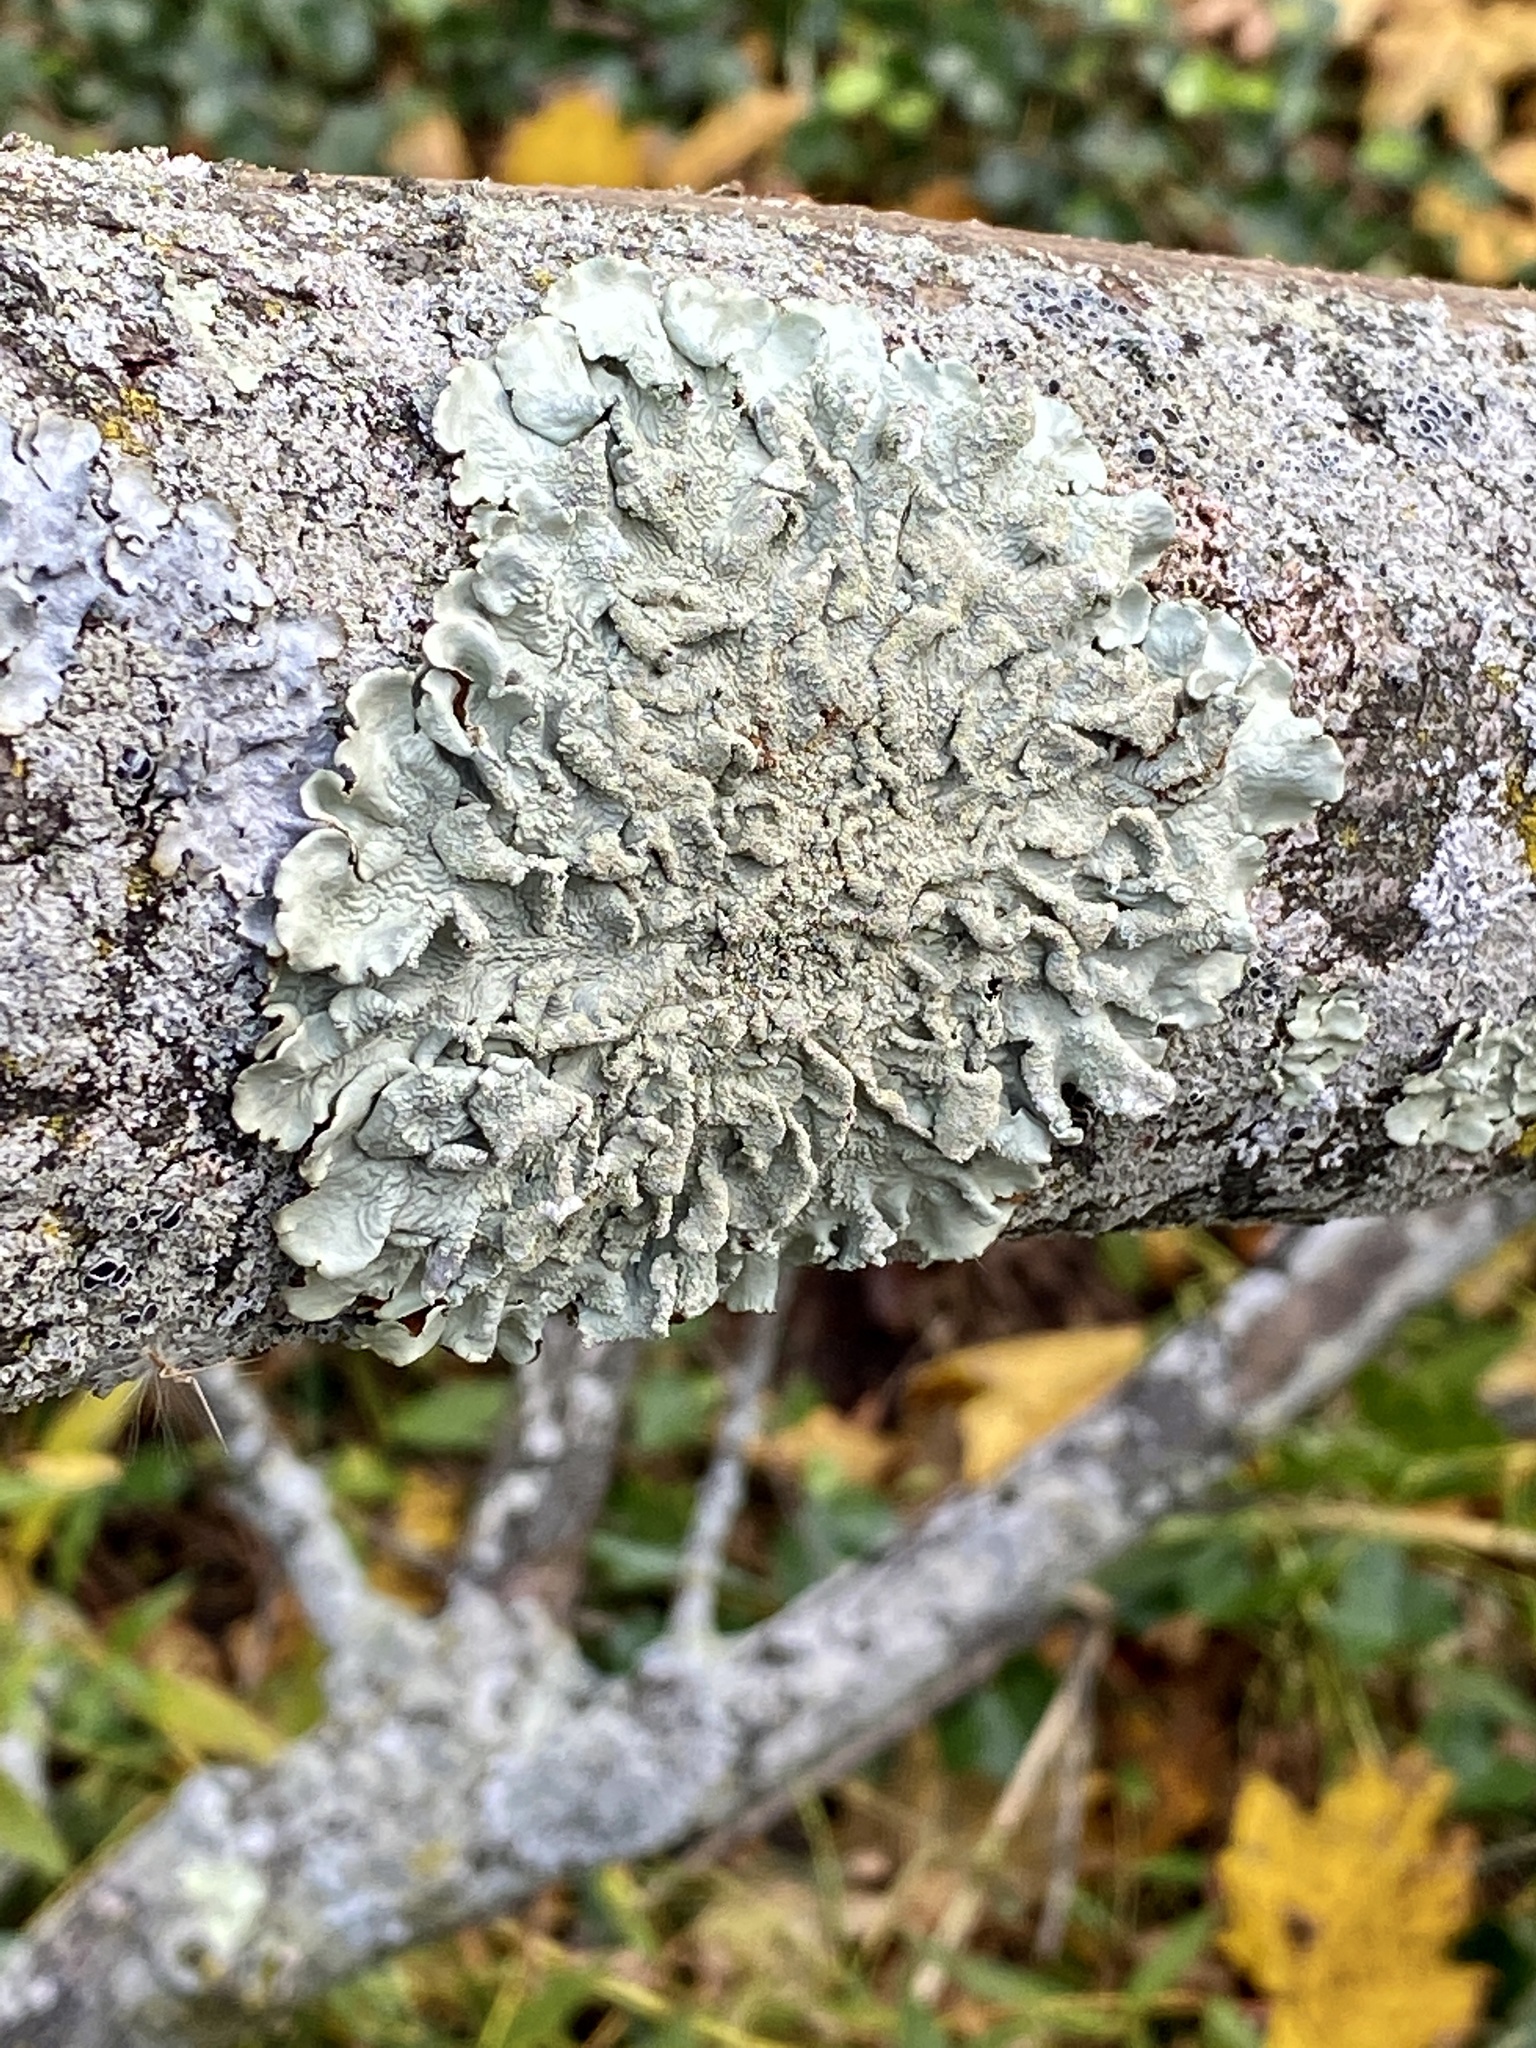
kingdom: Fungi
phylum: Ascomycota
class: Lecanoromycetes
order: Lecanorales
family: Parmeliaceae
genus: Flavoparmelia
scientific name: Flavoparmelia caperata
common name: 40-mile per hour lichen
